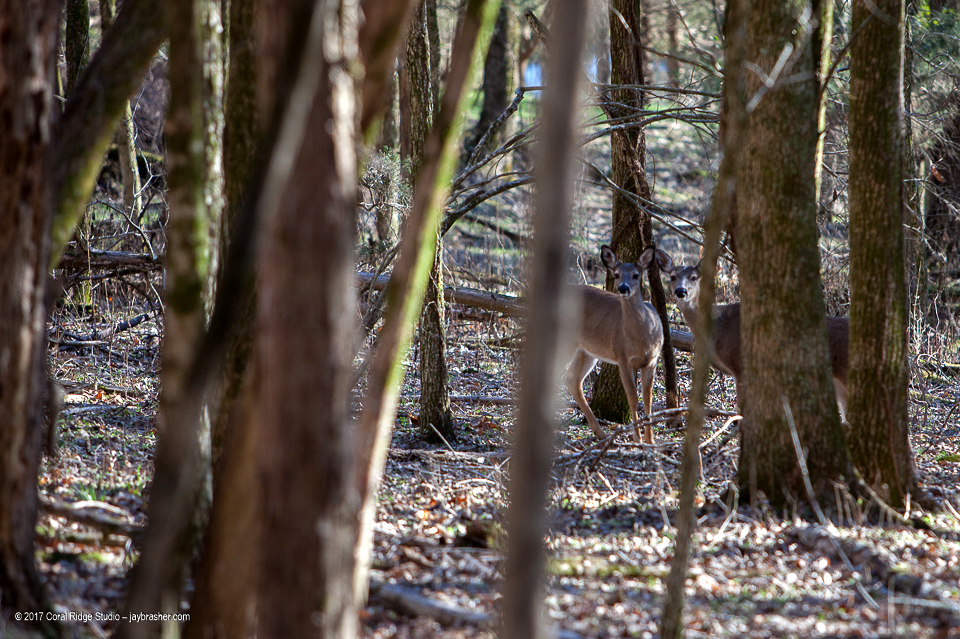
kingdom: Animalia
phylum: Chordata
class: Mammalia
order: Artiodactyla
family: Cervidae
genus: Odocoileus
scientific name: Odocoileus virginianus
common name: White-tailed deer
